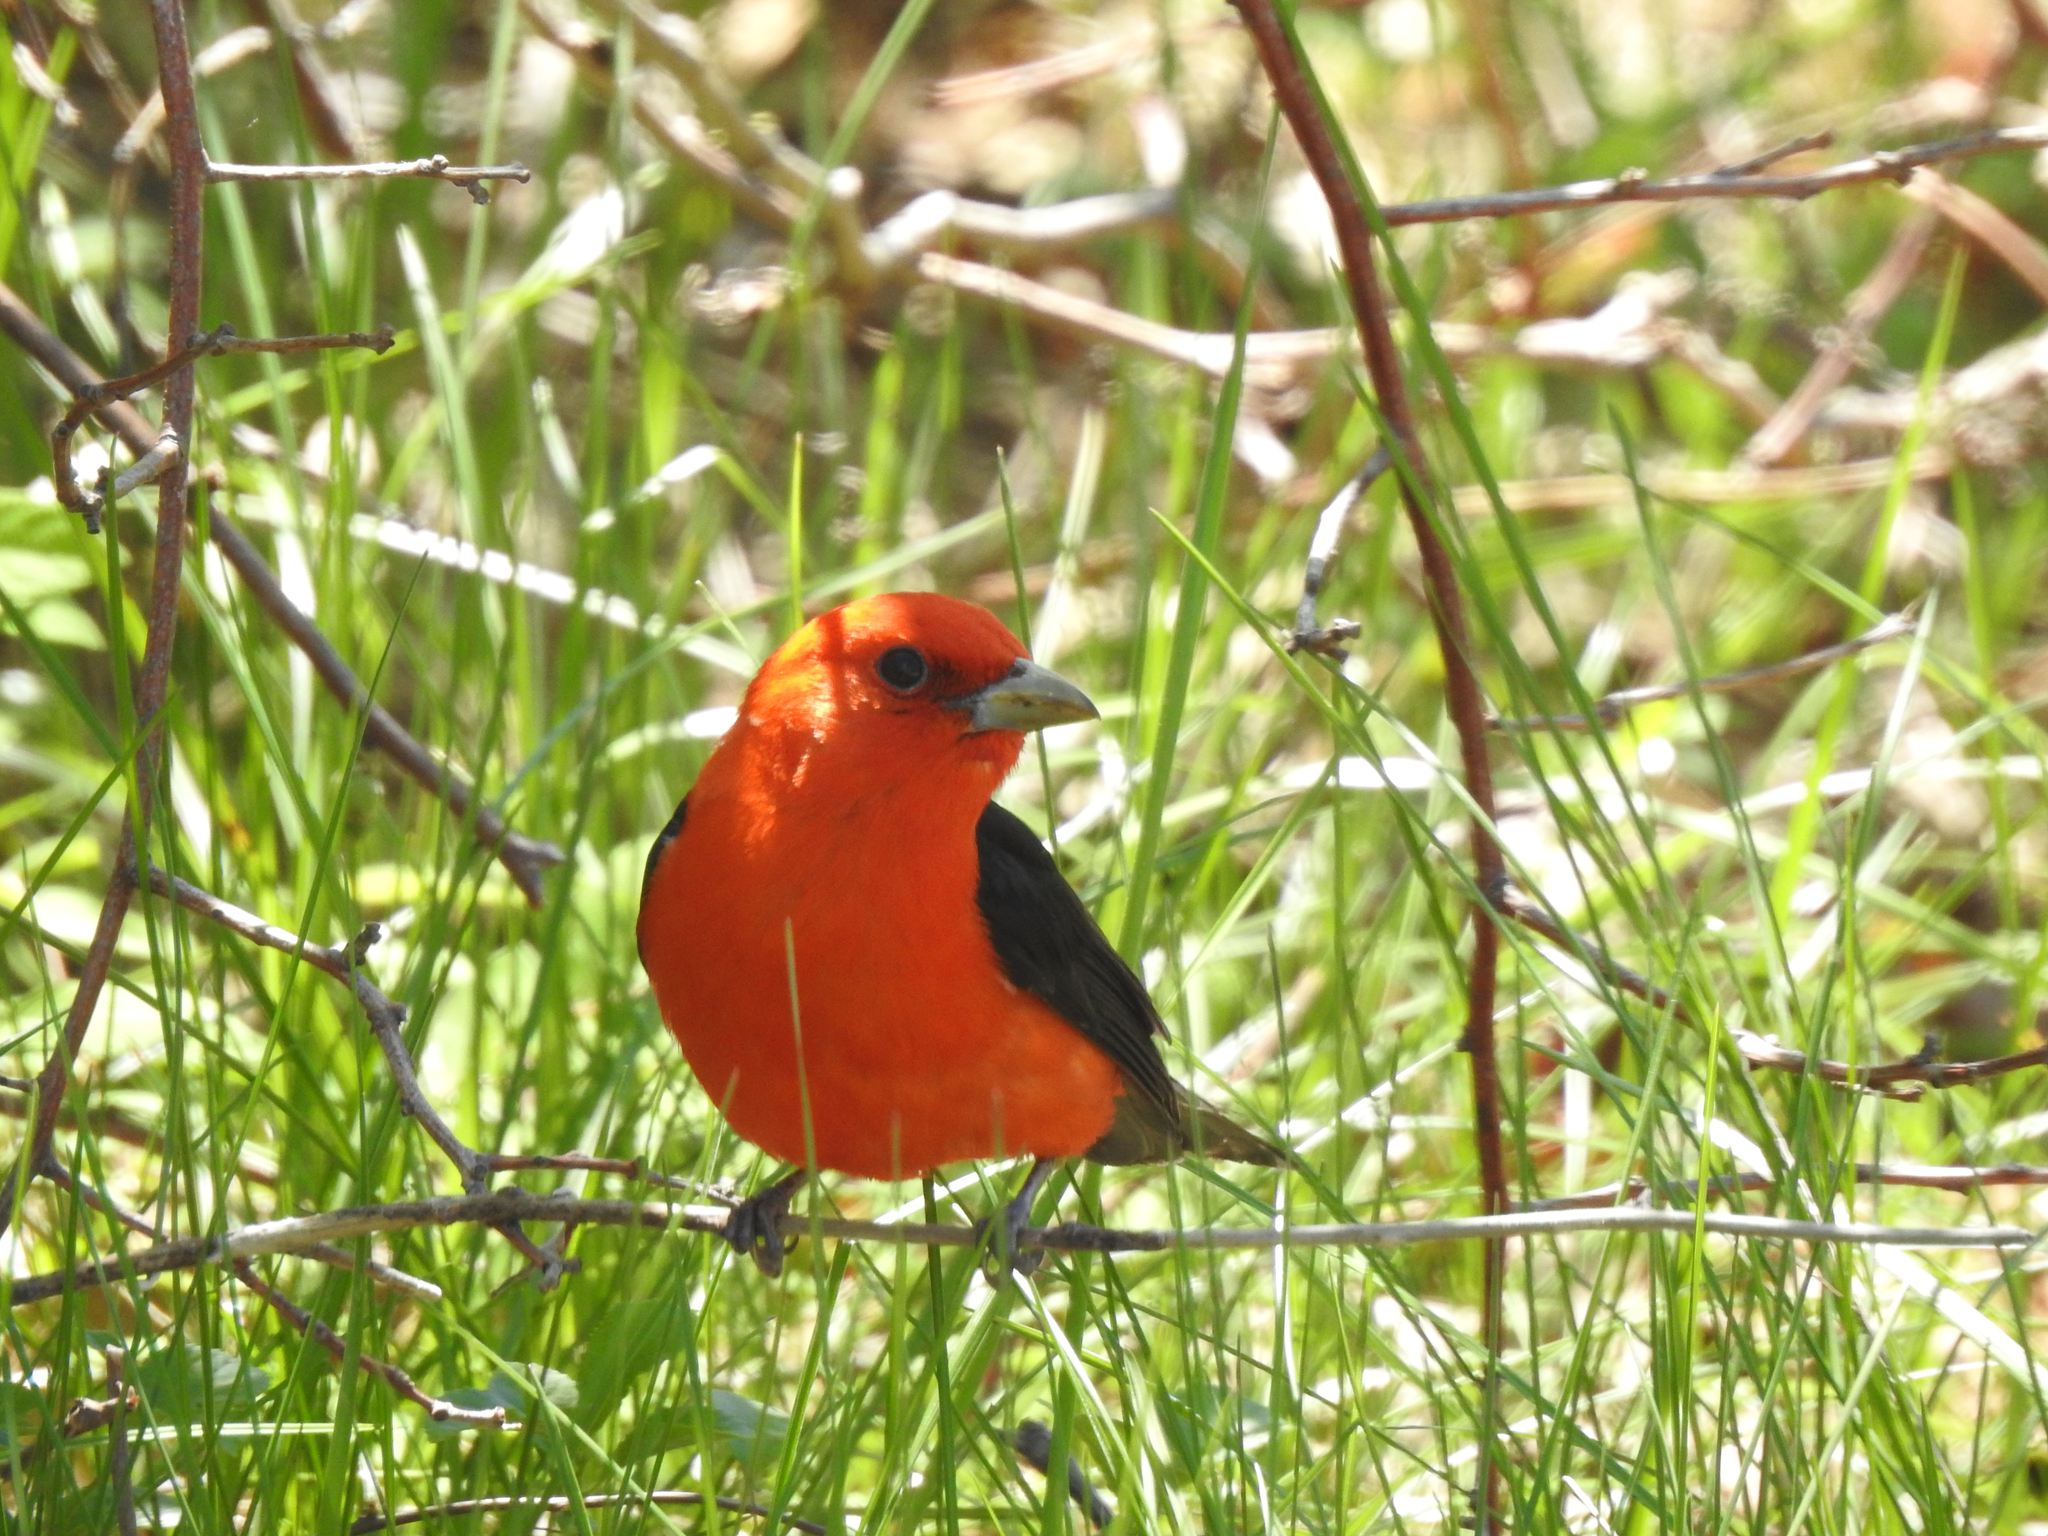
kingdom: Animalia
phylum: Chordata
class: Aves
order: Passeriformes
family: Cardinalidae
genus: Piranga
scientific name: Piranga olivacea
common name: Scarlet tanager
